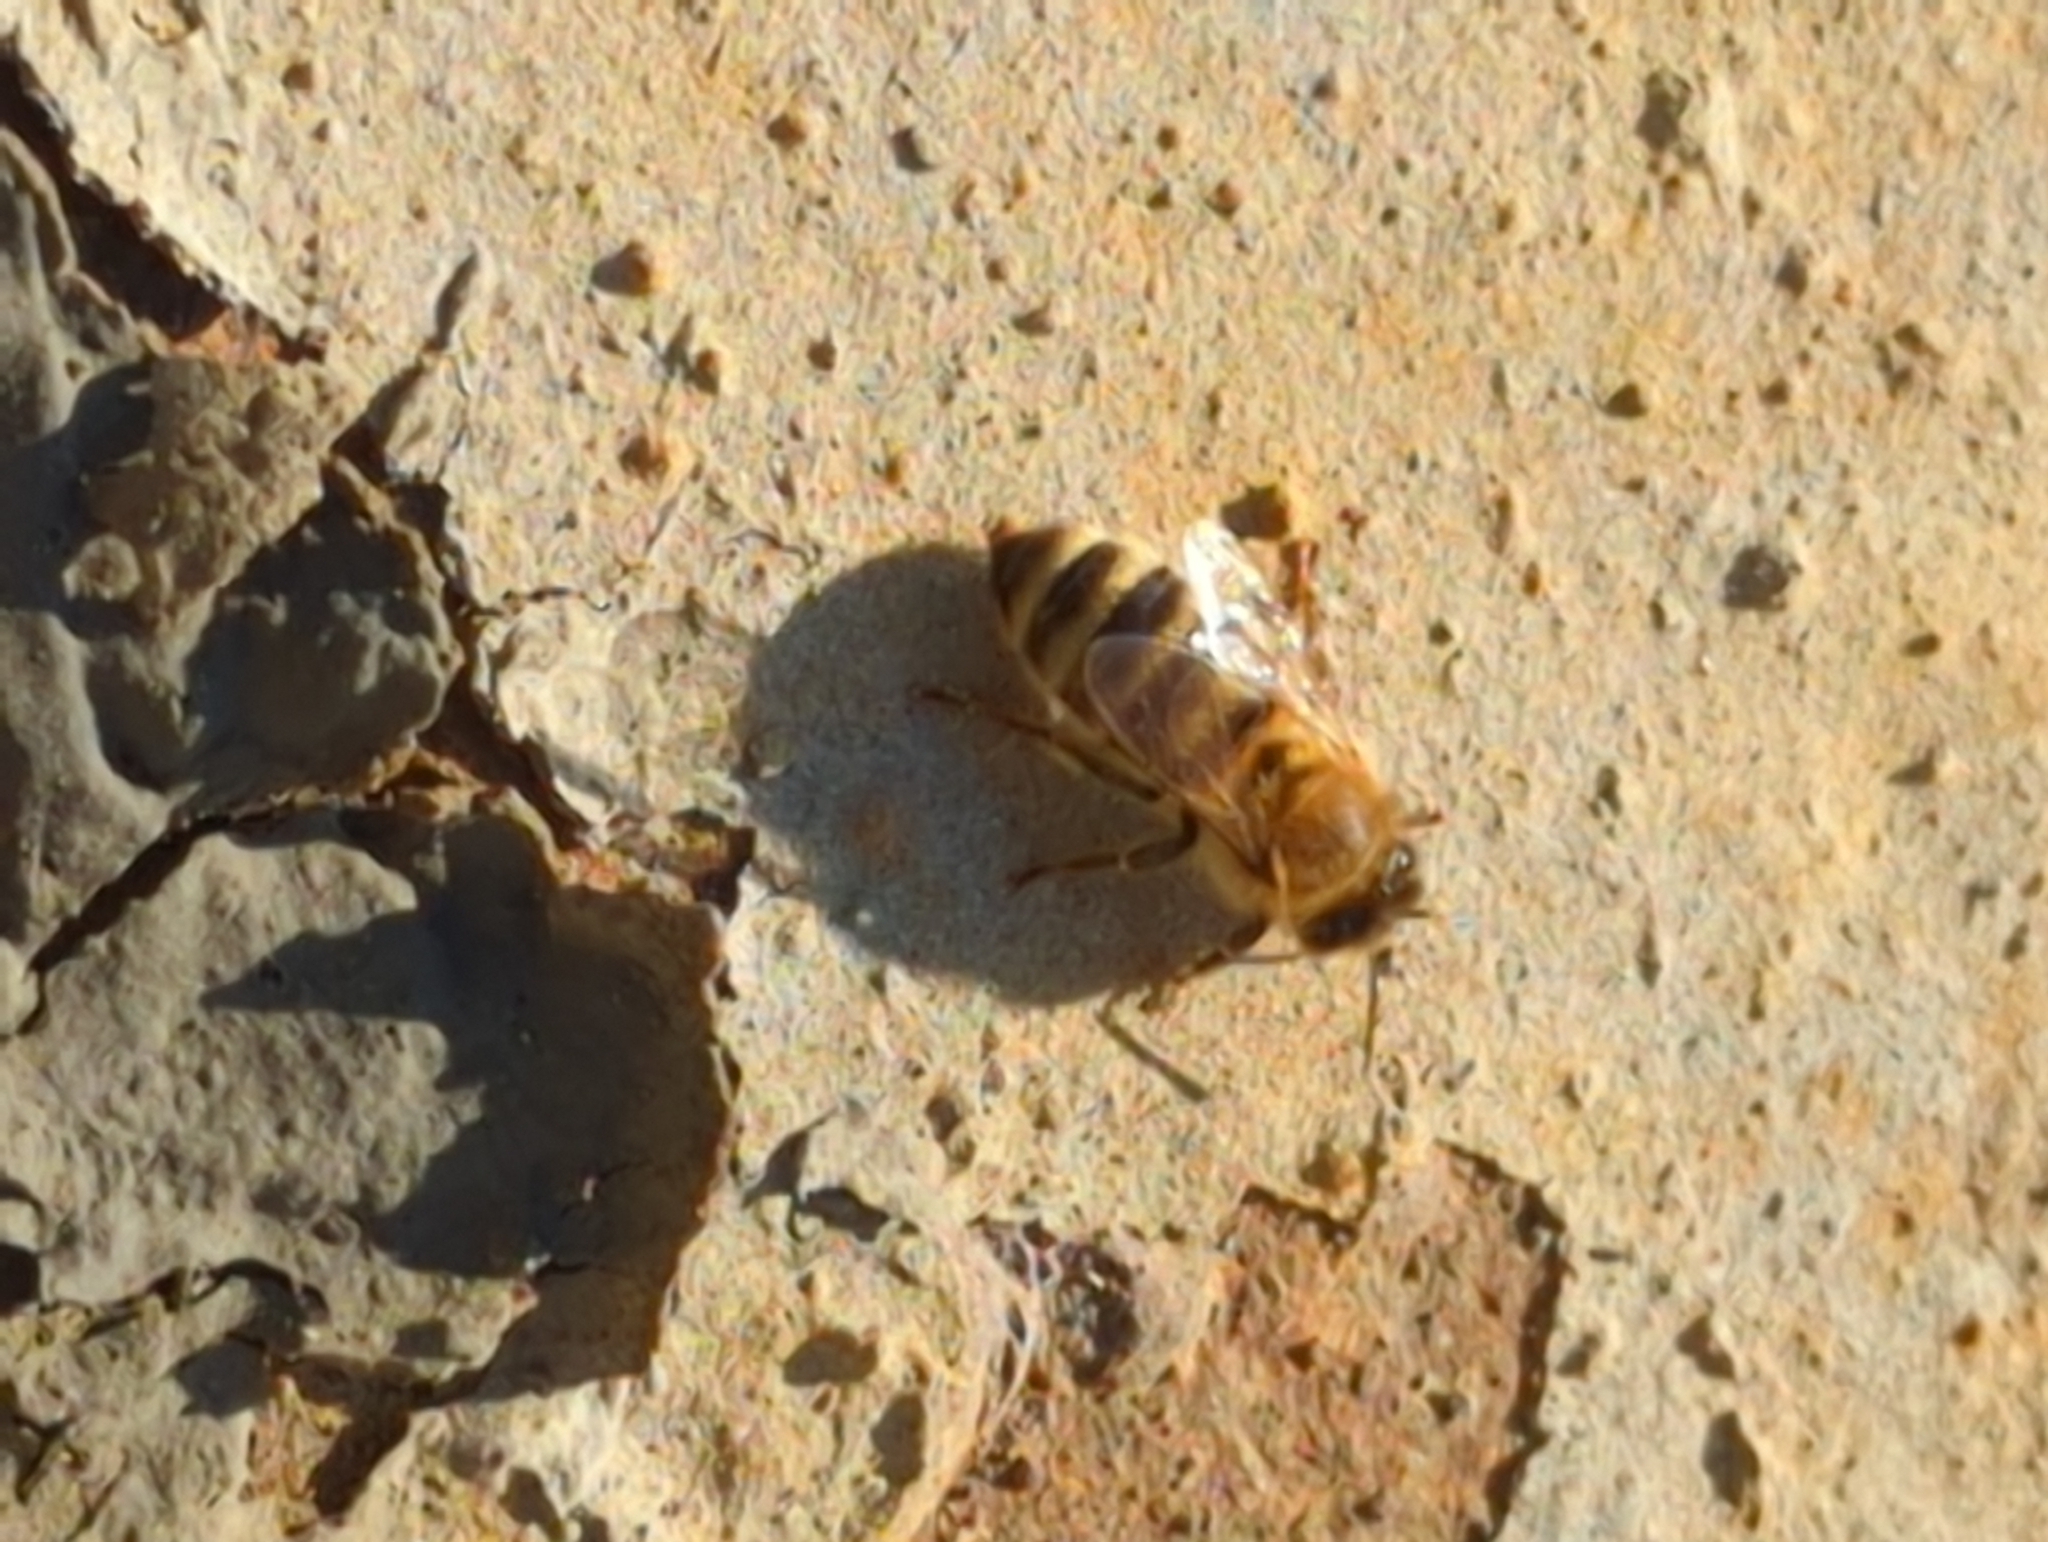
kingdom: Animalia
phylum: Arthropoda
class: Insecta
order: Hymenoptera
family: Apidae
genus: Apis
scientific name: Apis mellifera
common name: Honey bee
